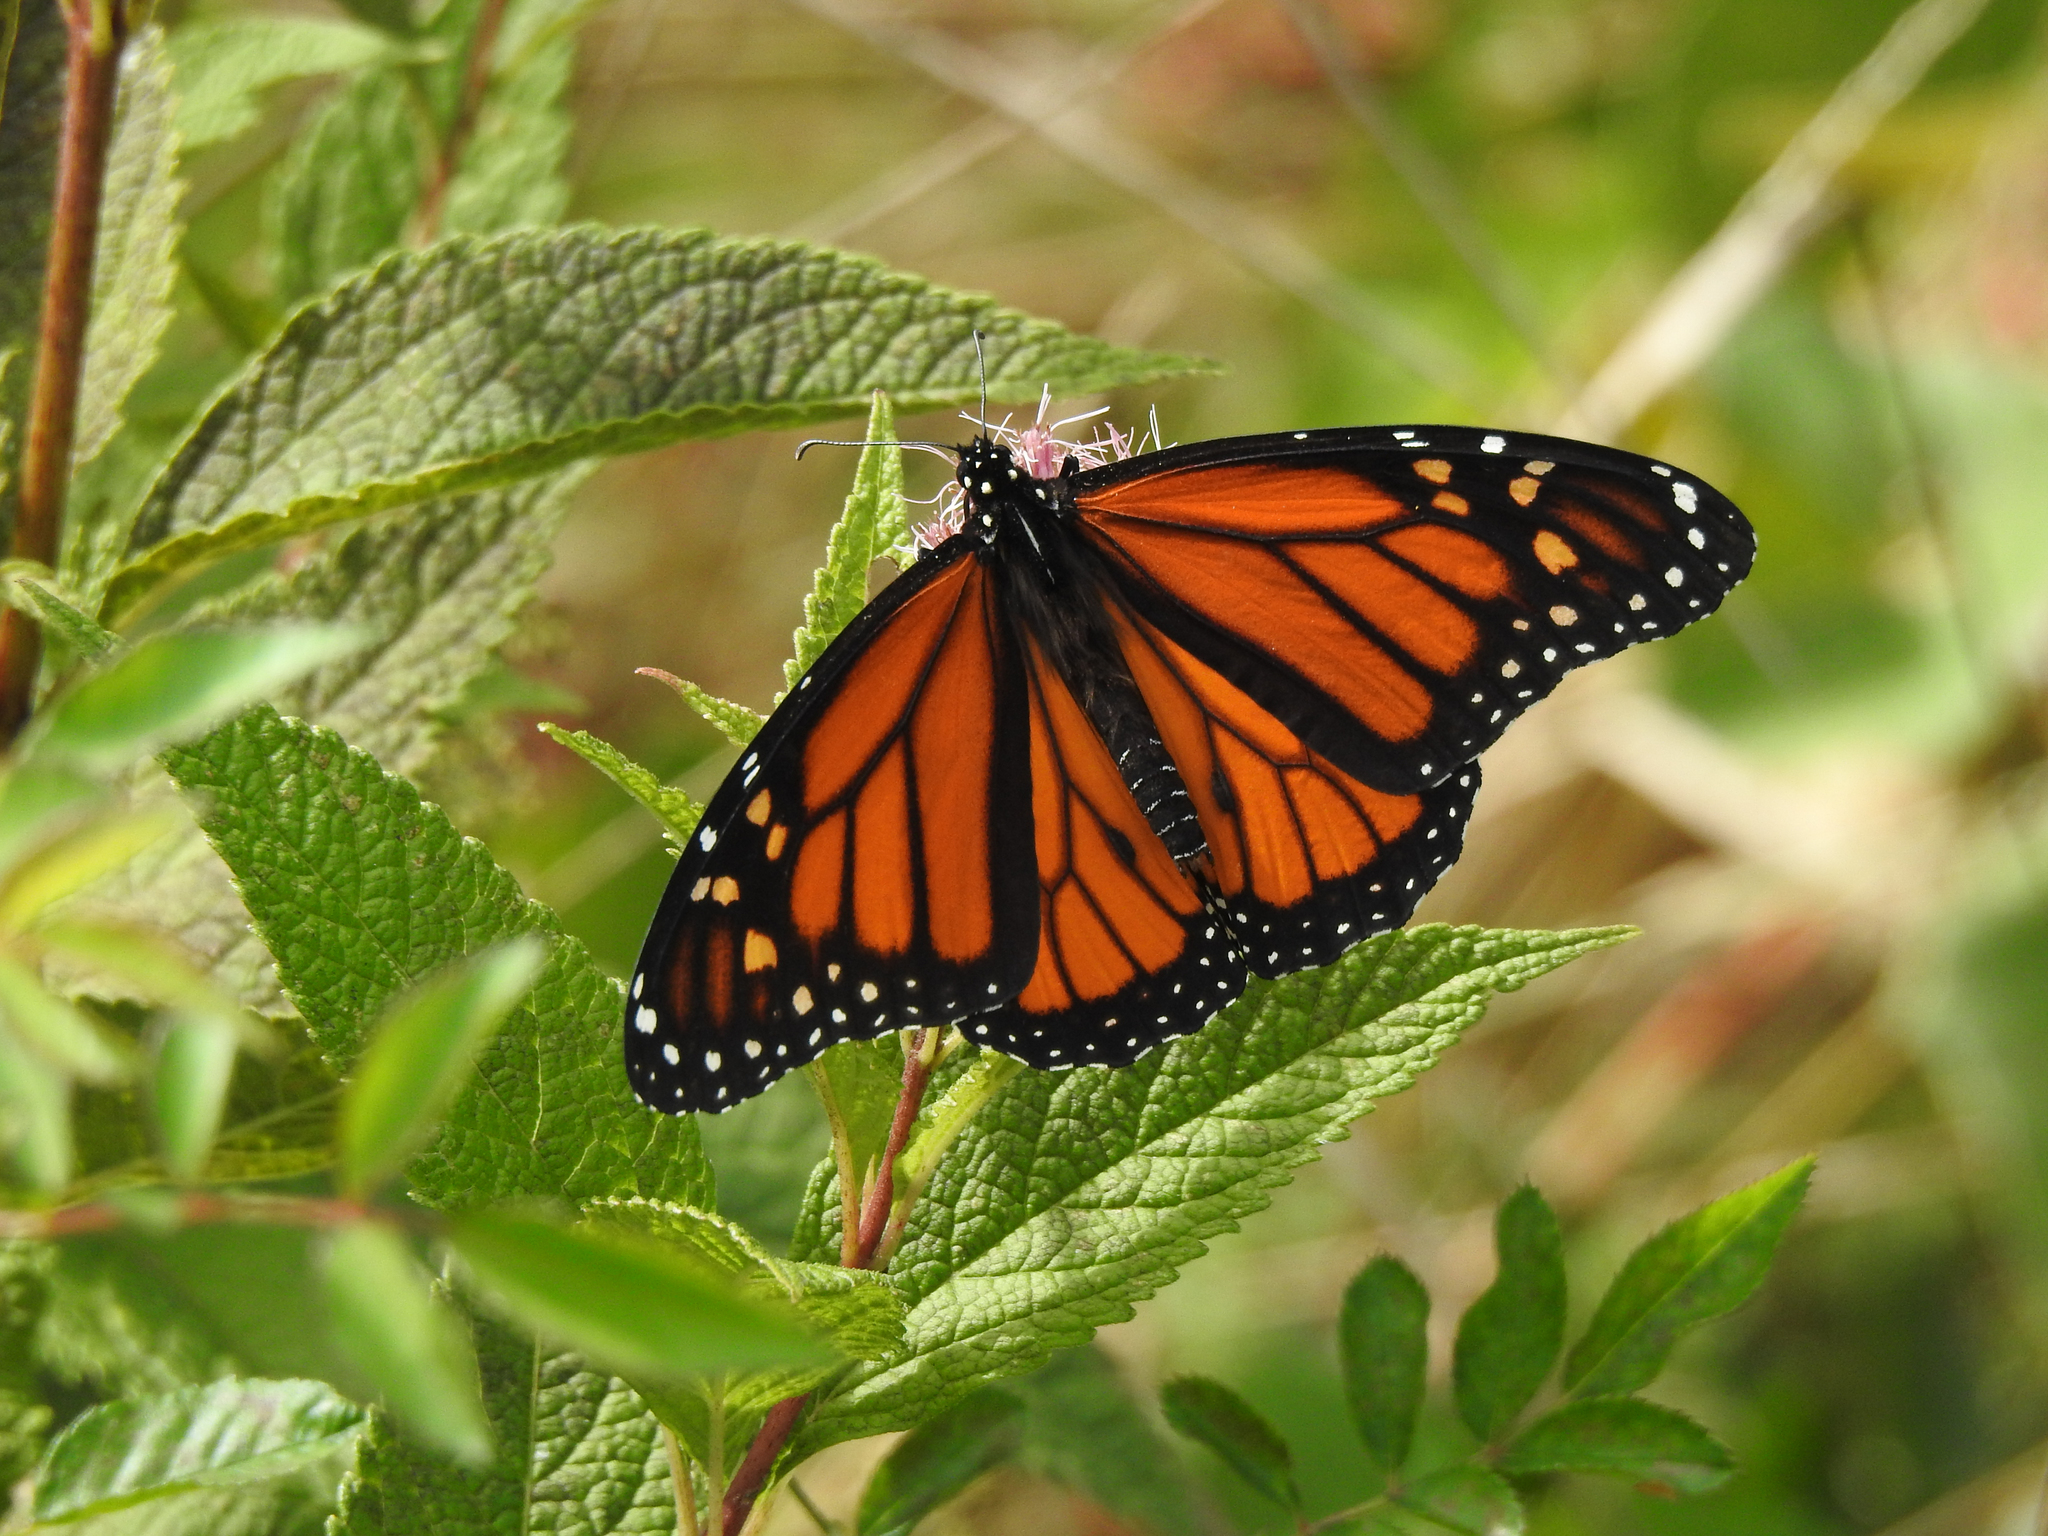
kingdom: Animalia
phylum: Arthropoda
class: Insecta
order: Lepidoptera
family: Nymphalidae
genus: Danaus
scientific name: Danaus plexippus
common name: Monarch
